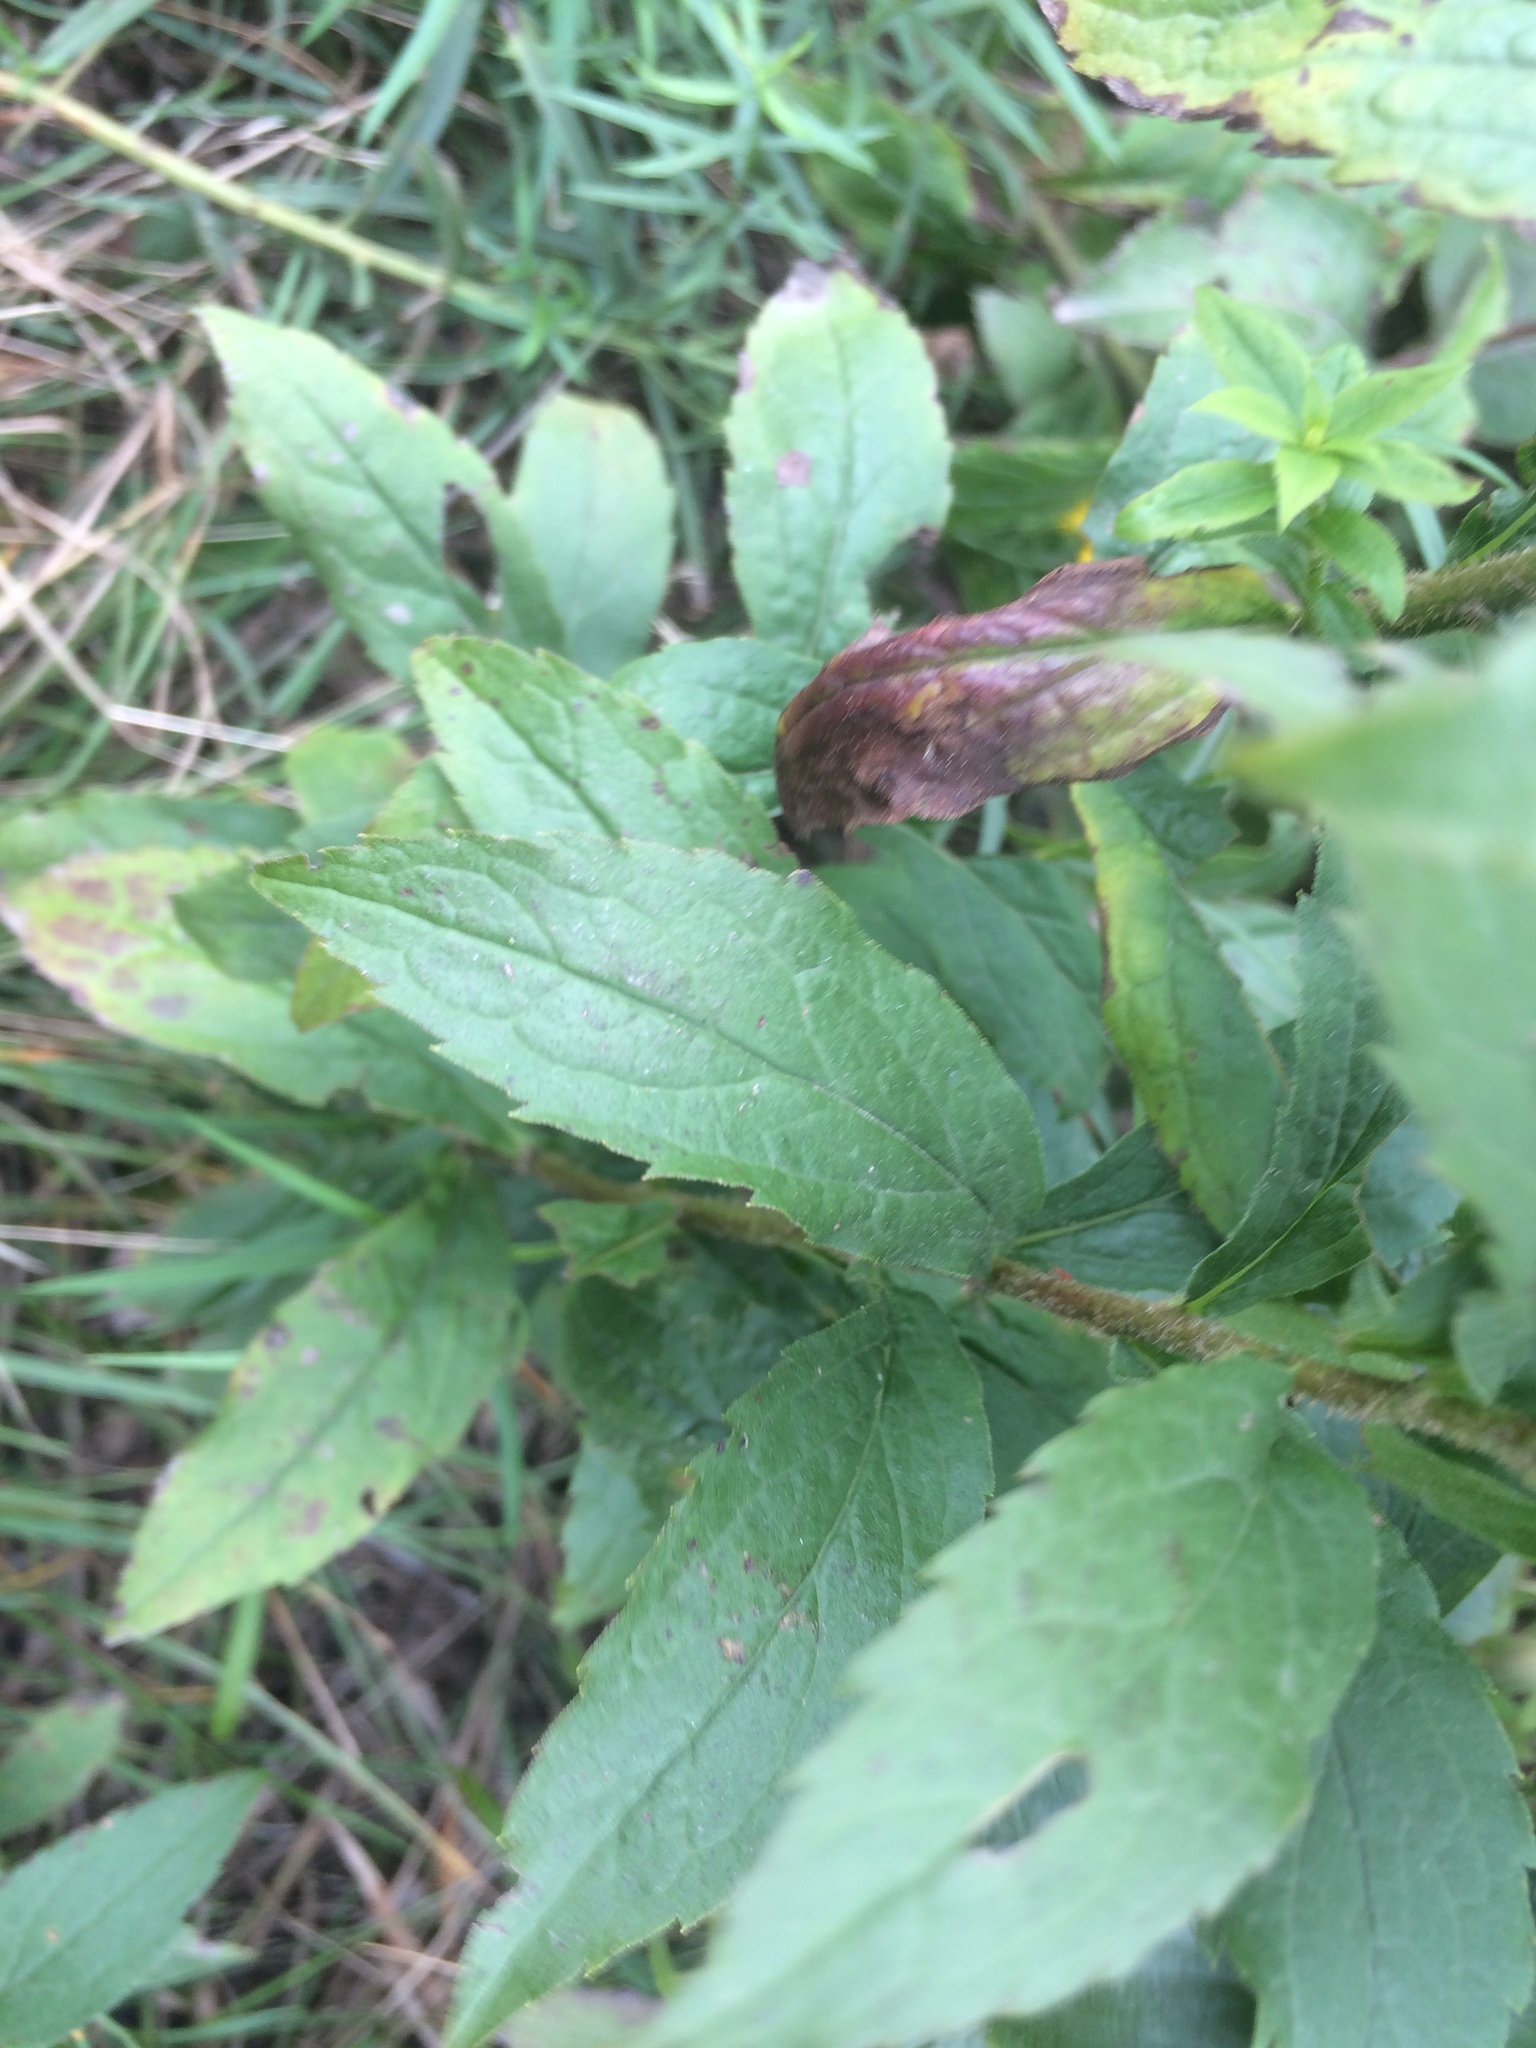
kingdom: Plantae
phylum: Tracheophyta
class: Magnoliopsida
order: Asterales
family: Asteraceae
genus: Solidago
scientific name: Solidago rugosa
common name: Rough-stemmed goldenrod
